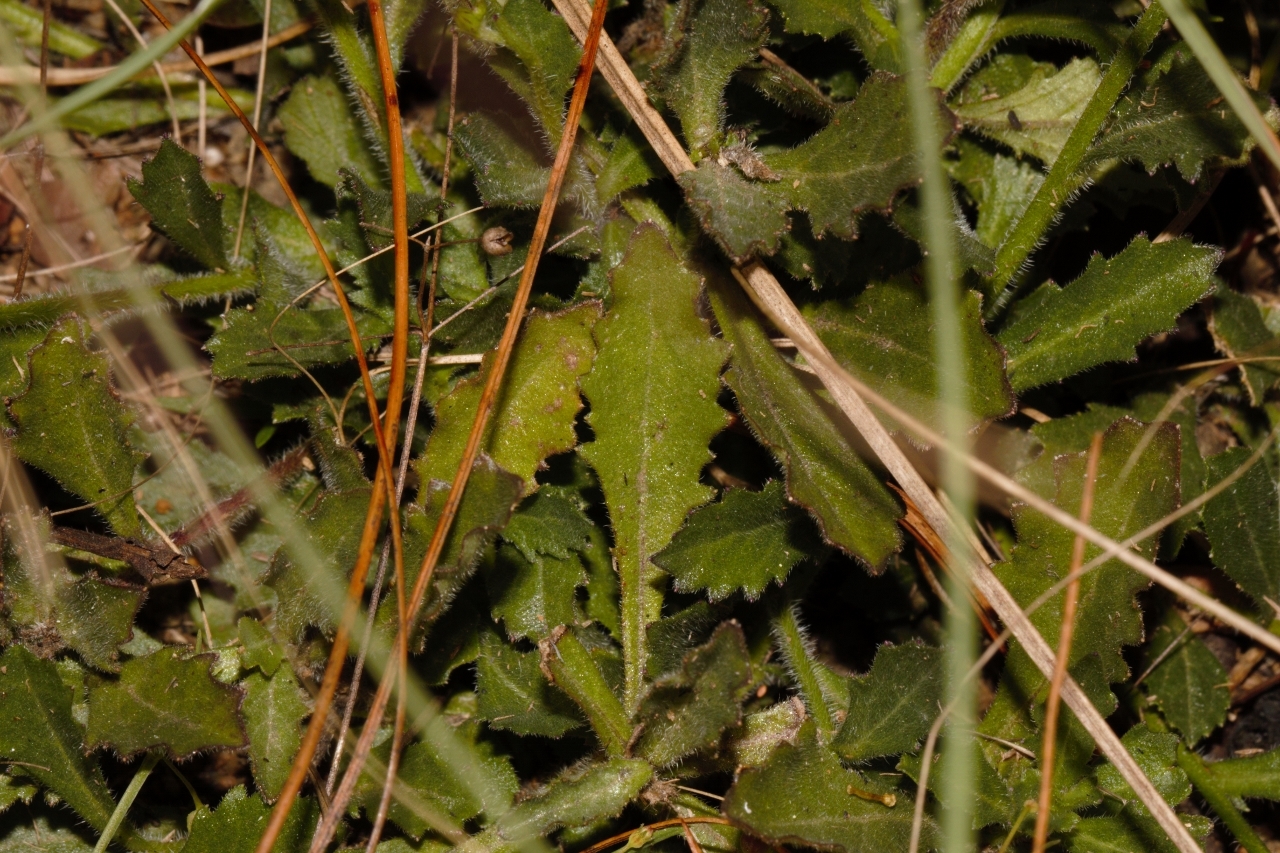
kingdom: Plantae
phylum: Tracheophyta
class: Magnoliopsida
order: Asterales
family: Campanulaceae
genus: Lobelia
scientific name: Lobelia goetzei
